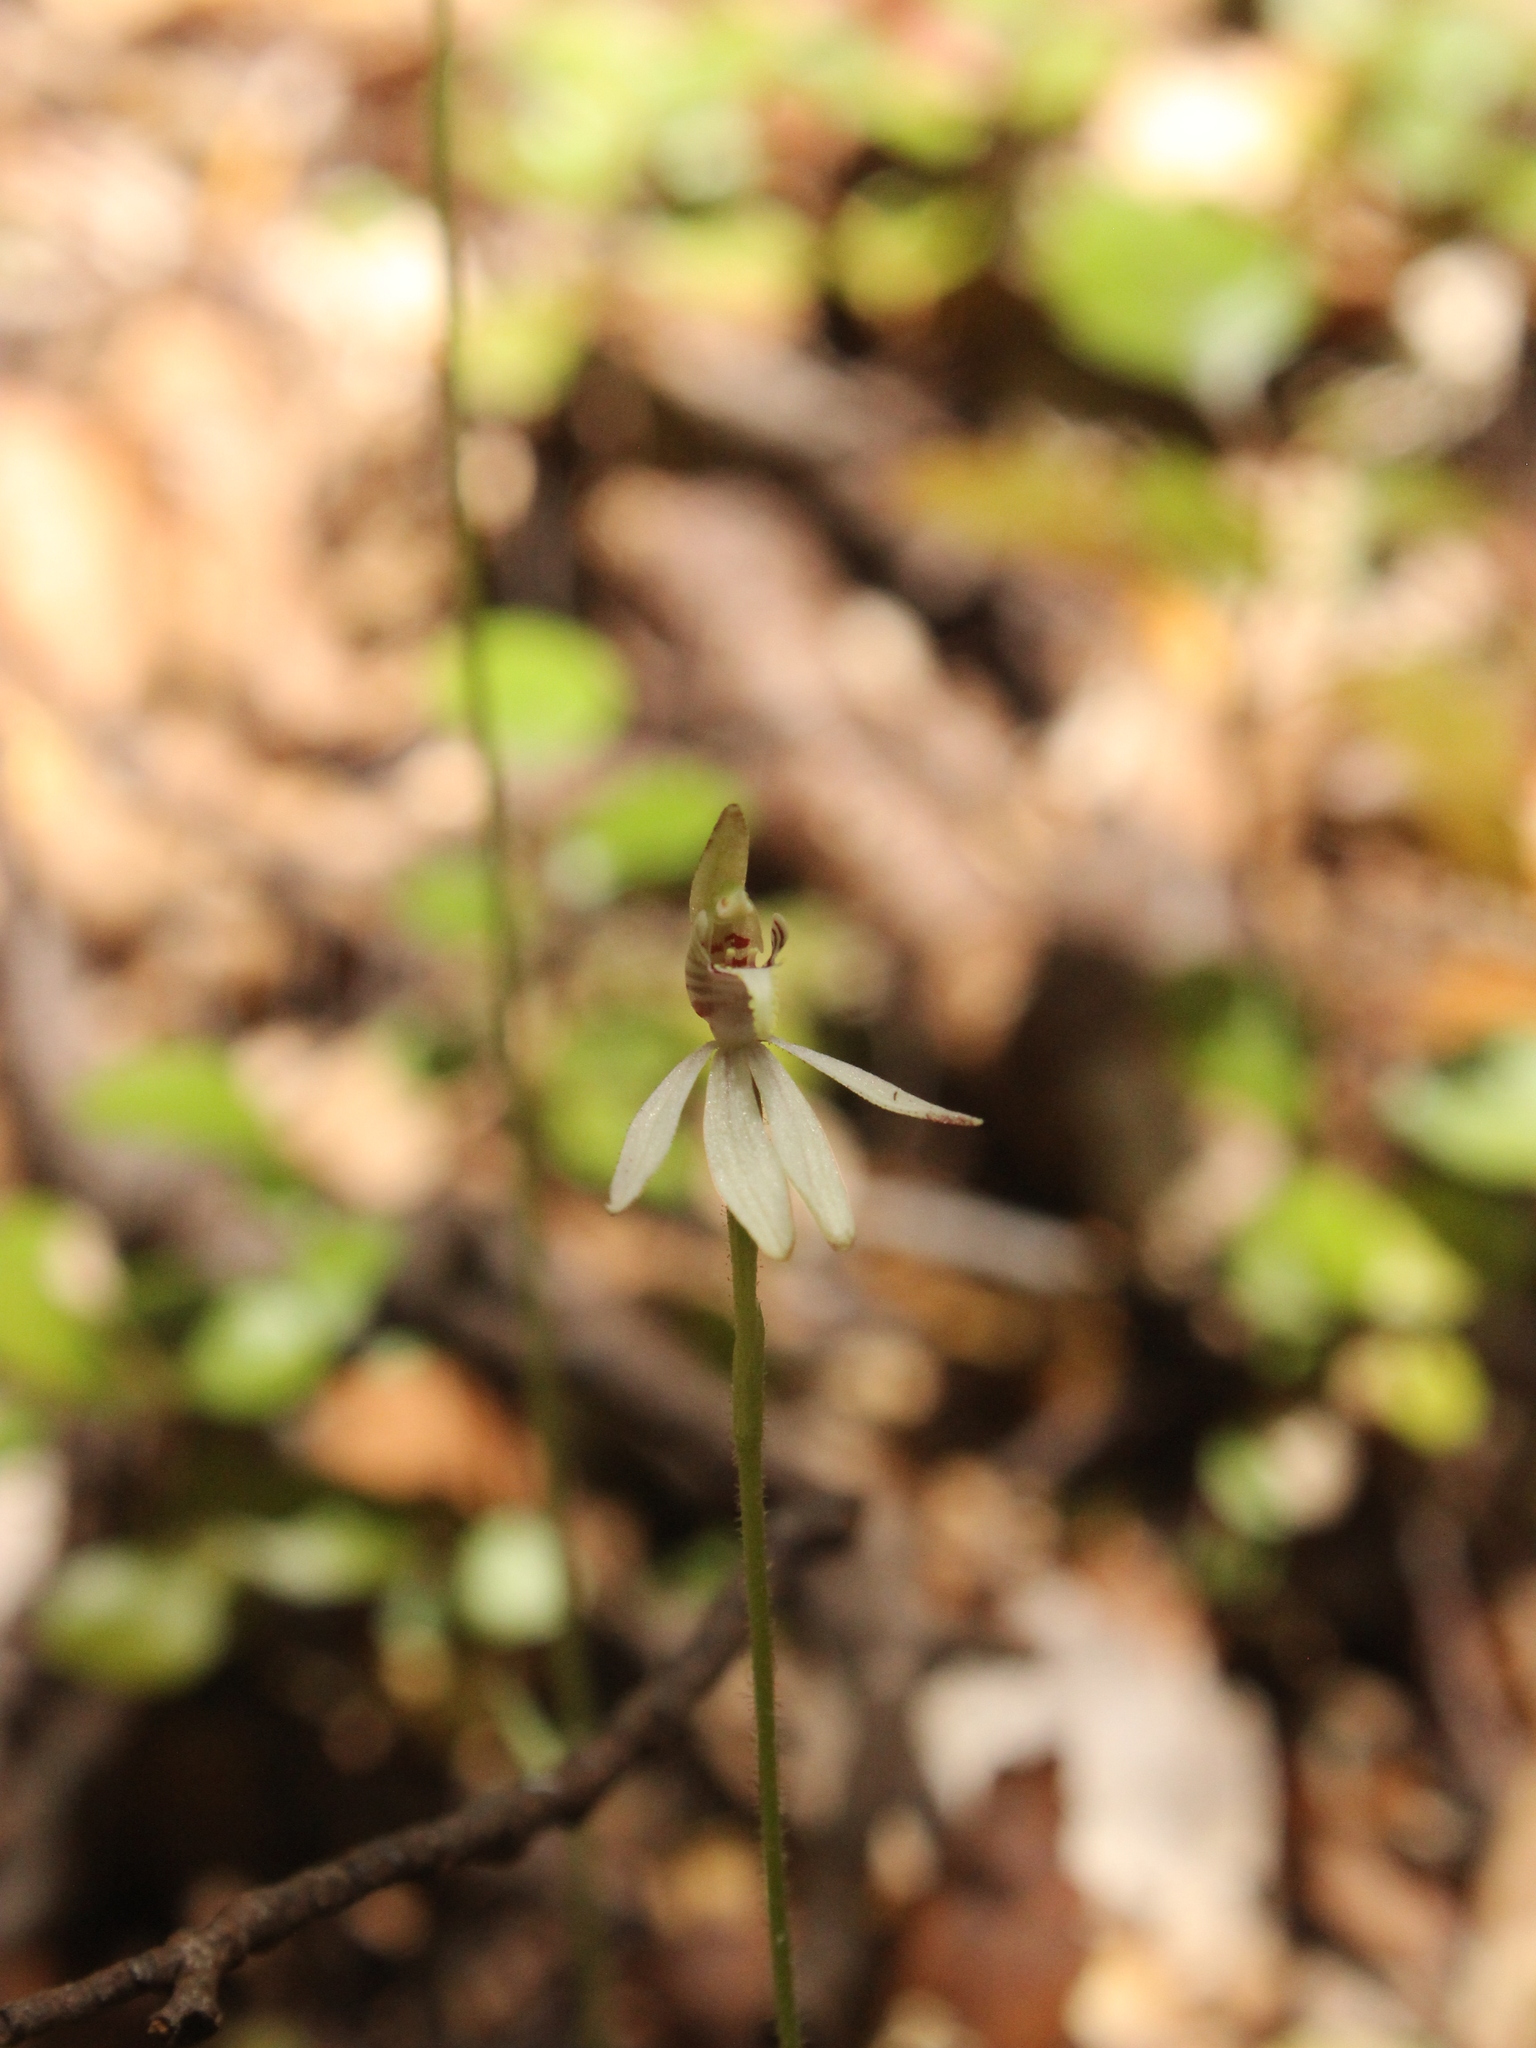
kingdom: Plantae
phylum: Tracheophyta
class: Liliopsida
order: Asparagales
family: Orchidaceae
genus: Caladenia
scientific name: Caladenia chlorostyla
